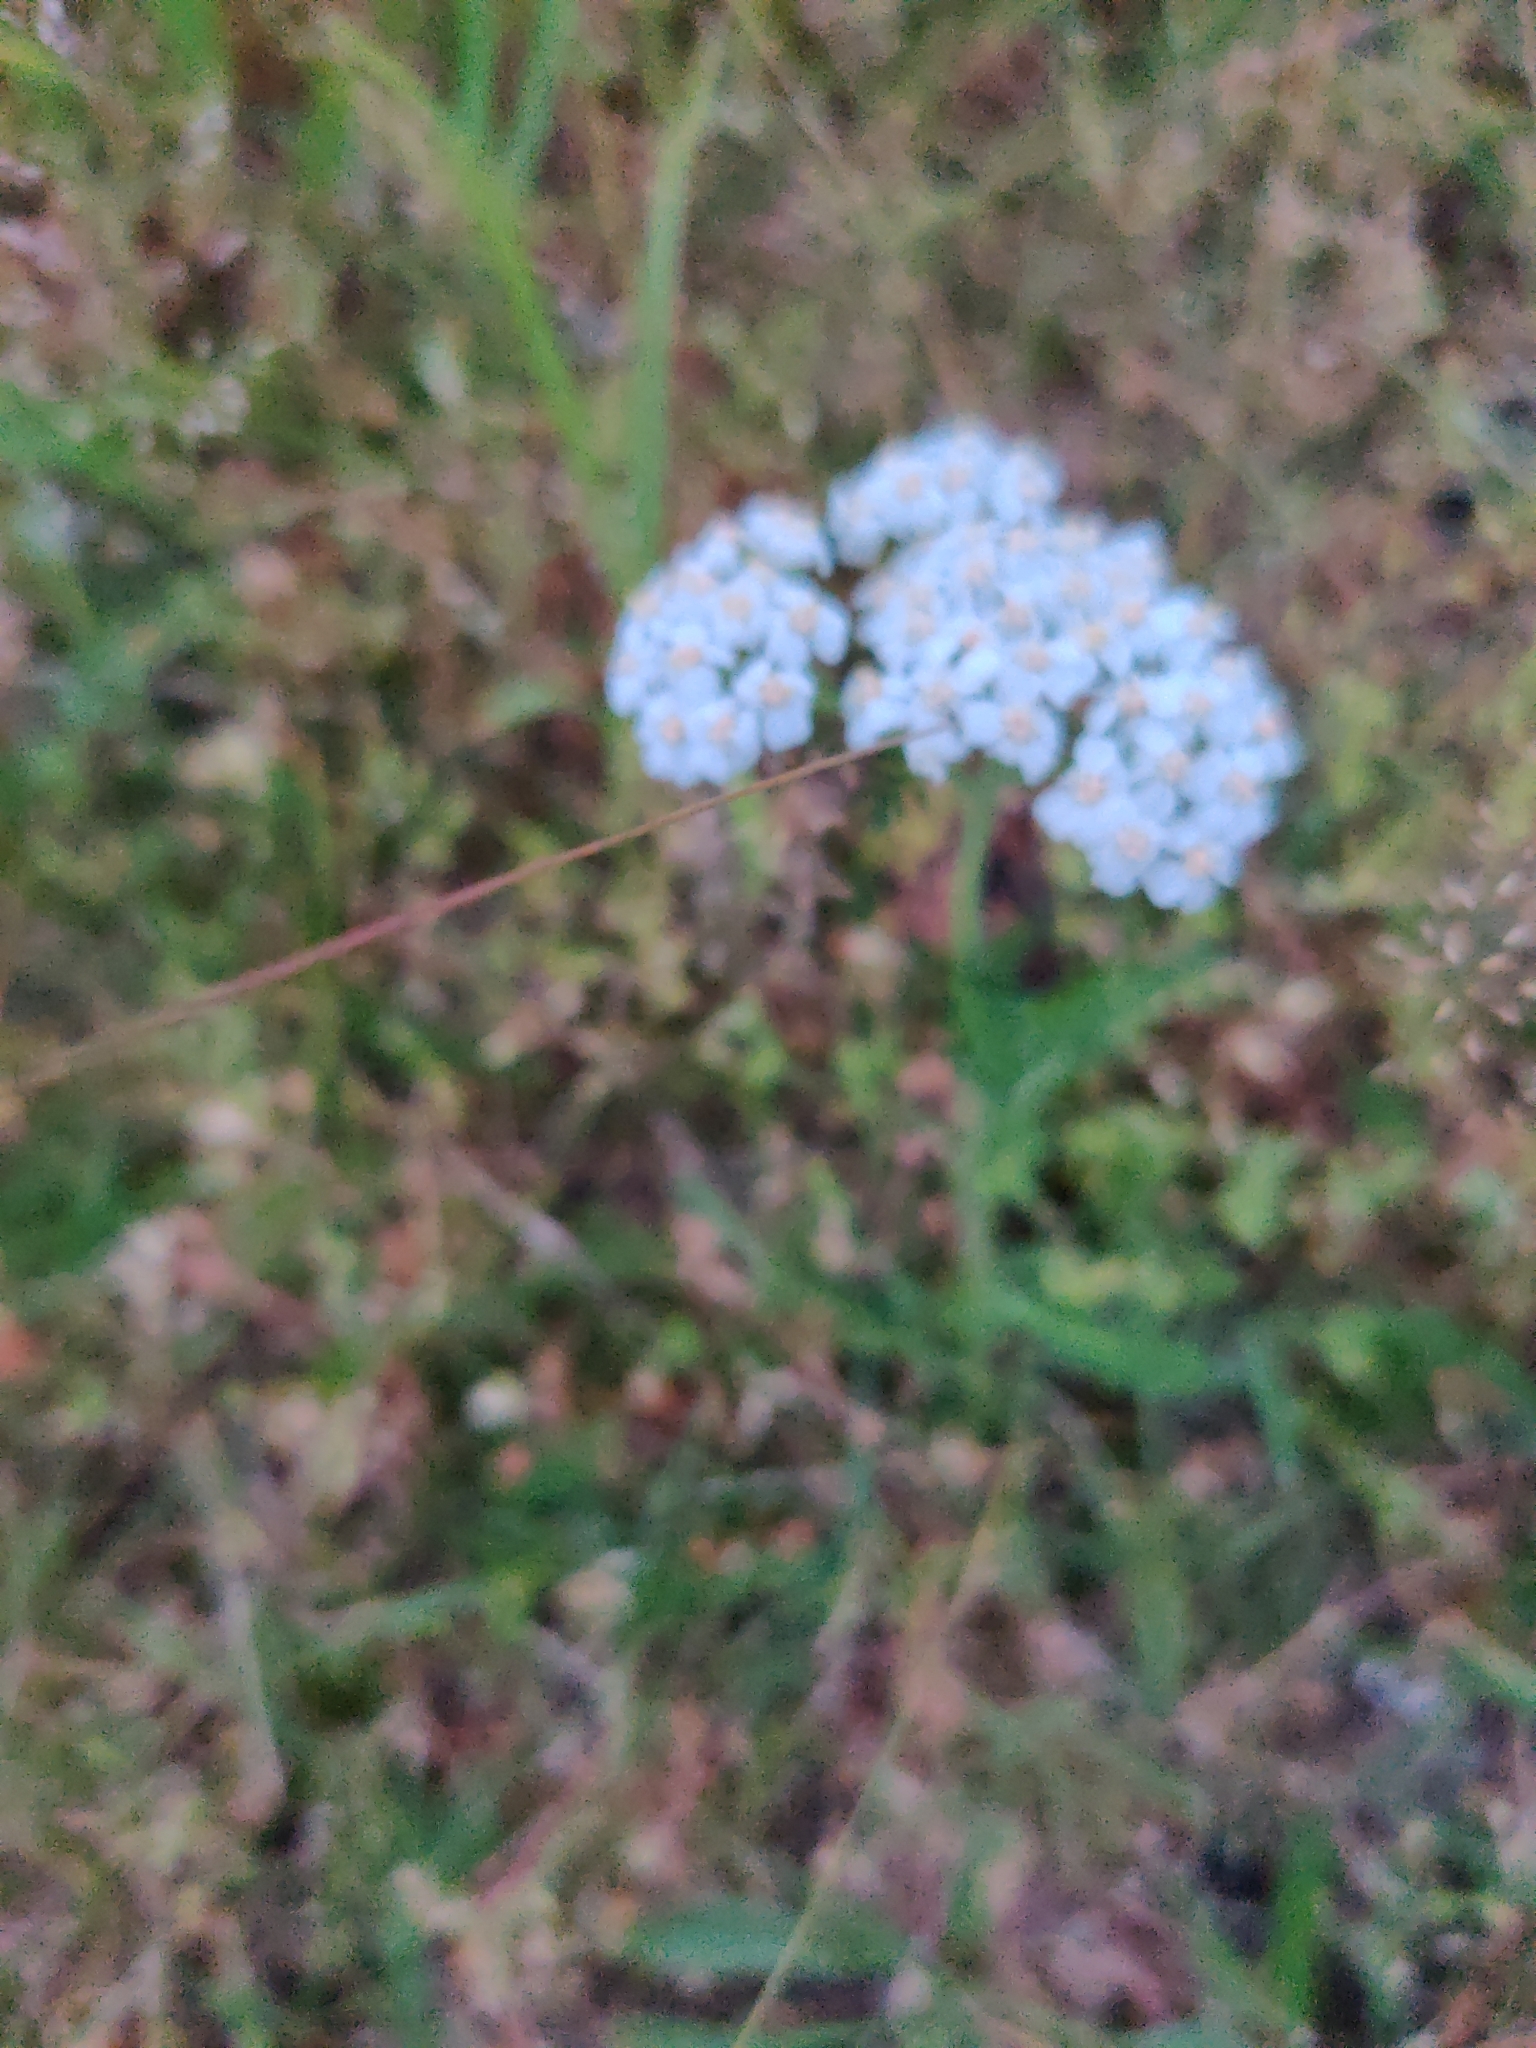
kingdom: Plantae
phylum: Tracheophyta
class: Magnoliopsida
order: Asterales
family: Asteraceae
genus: Achillea
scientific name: Achillea millefolium
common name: Yarrow
